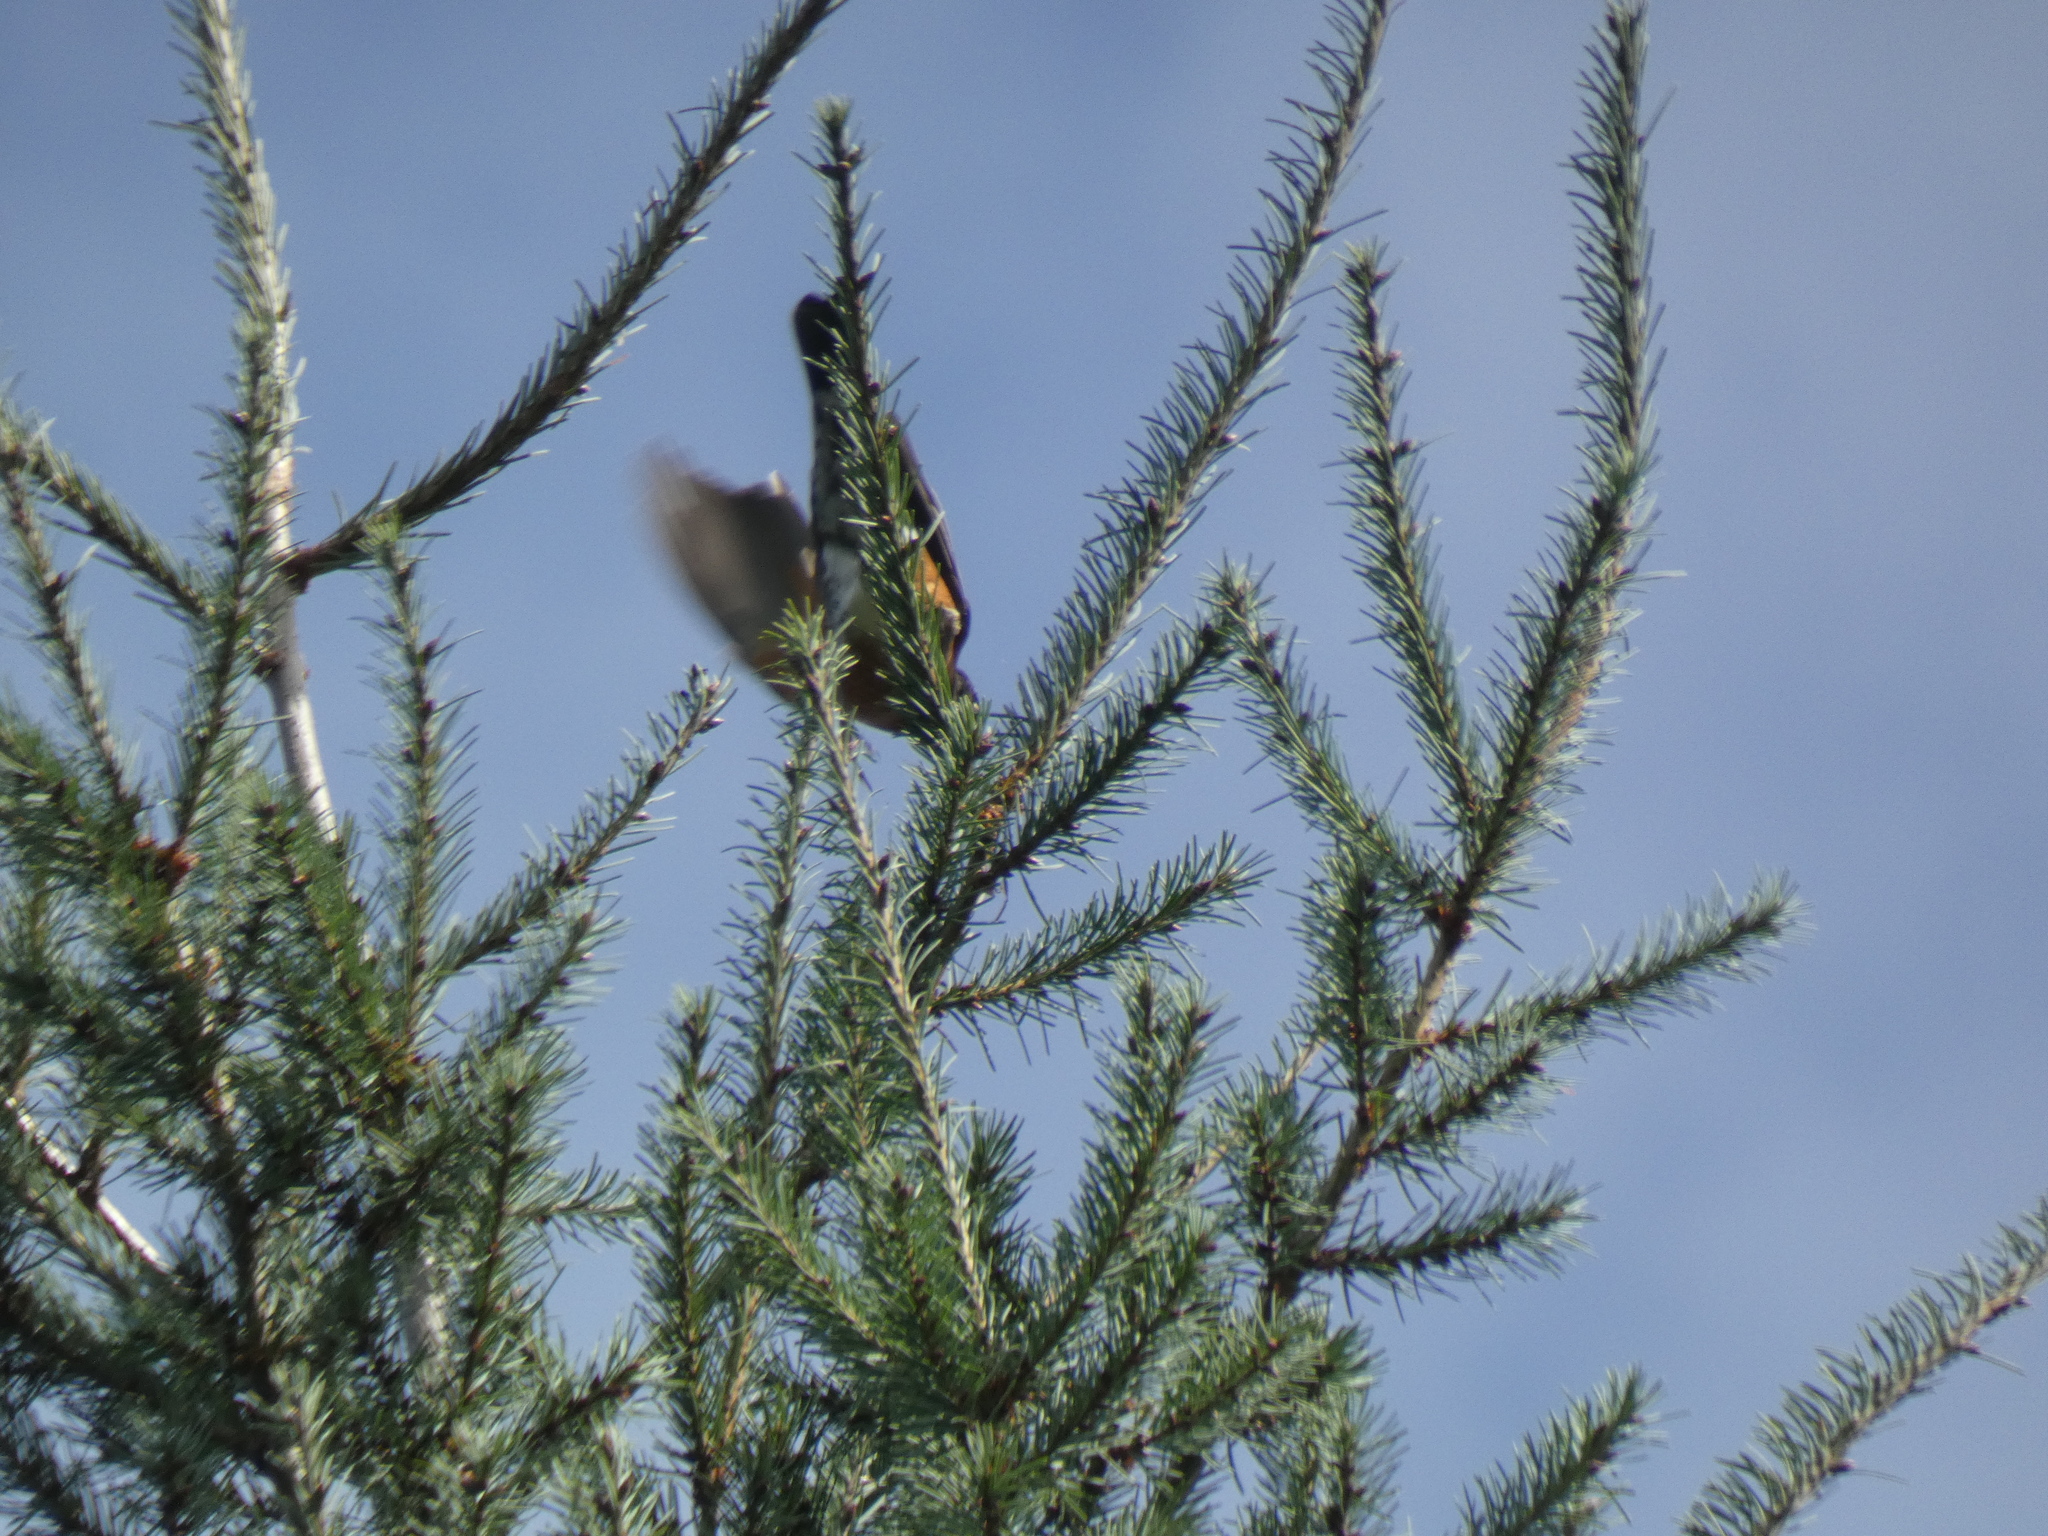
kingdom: Animalia
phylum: Chordata
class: Aves
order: Passeriformes
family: Turdidae
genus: Turdus
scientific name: Turdus migratorius
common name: American robin
